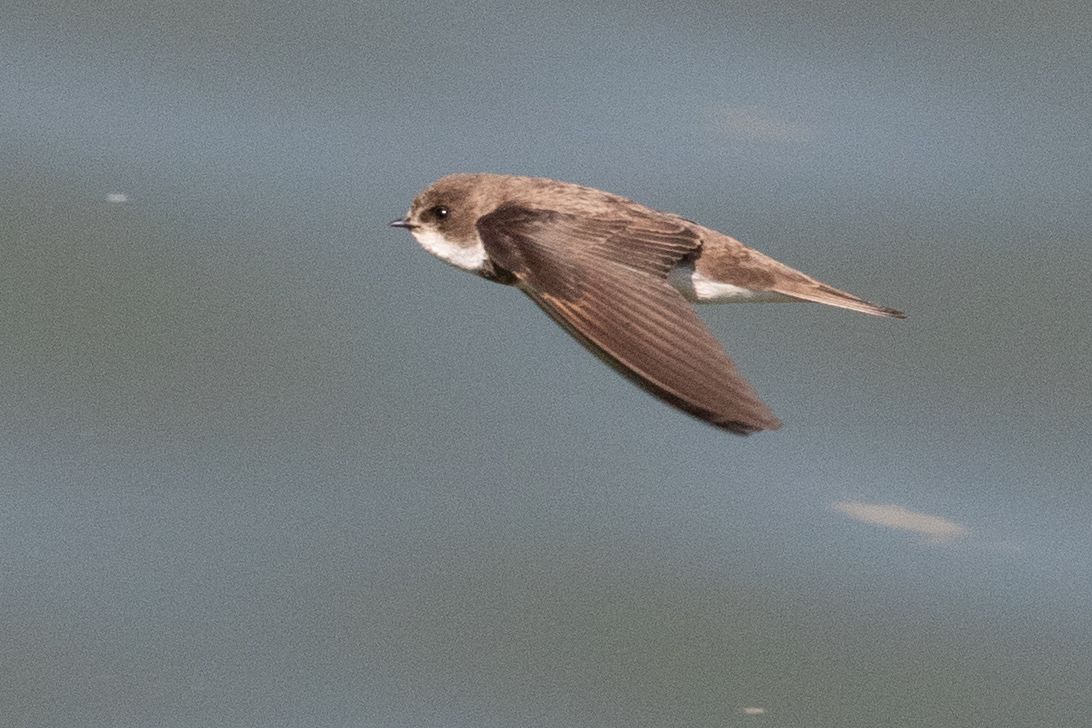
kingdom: Animalia
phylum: Chordata
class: Aves
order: Passeriformes
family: Hirundinidae
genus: Riparia
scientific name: Riparia riparia
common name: Sand martin
